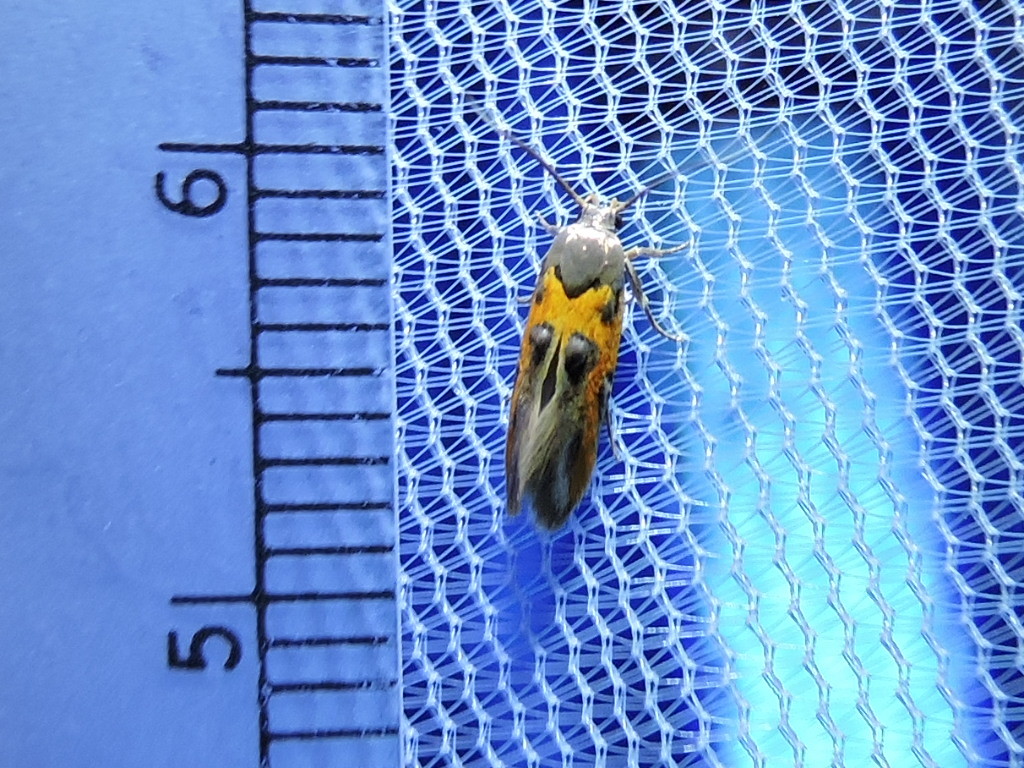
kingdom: Animalia
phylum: Arthropoda
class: Insecta
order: Lepidoptera
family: Cosmopterigidae
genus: Euclemensia
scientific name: Euclemensia bassettella
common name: Kermes scale moth
